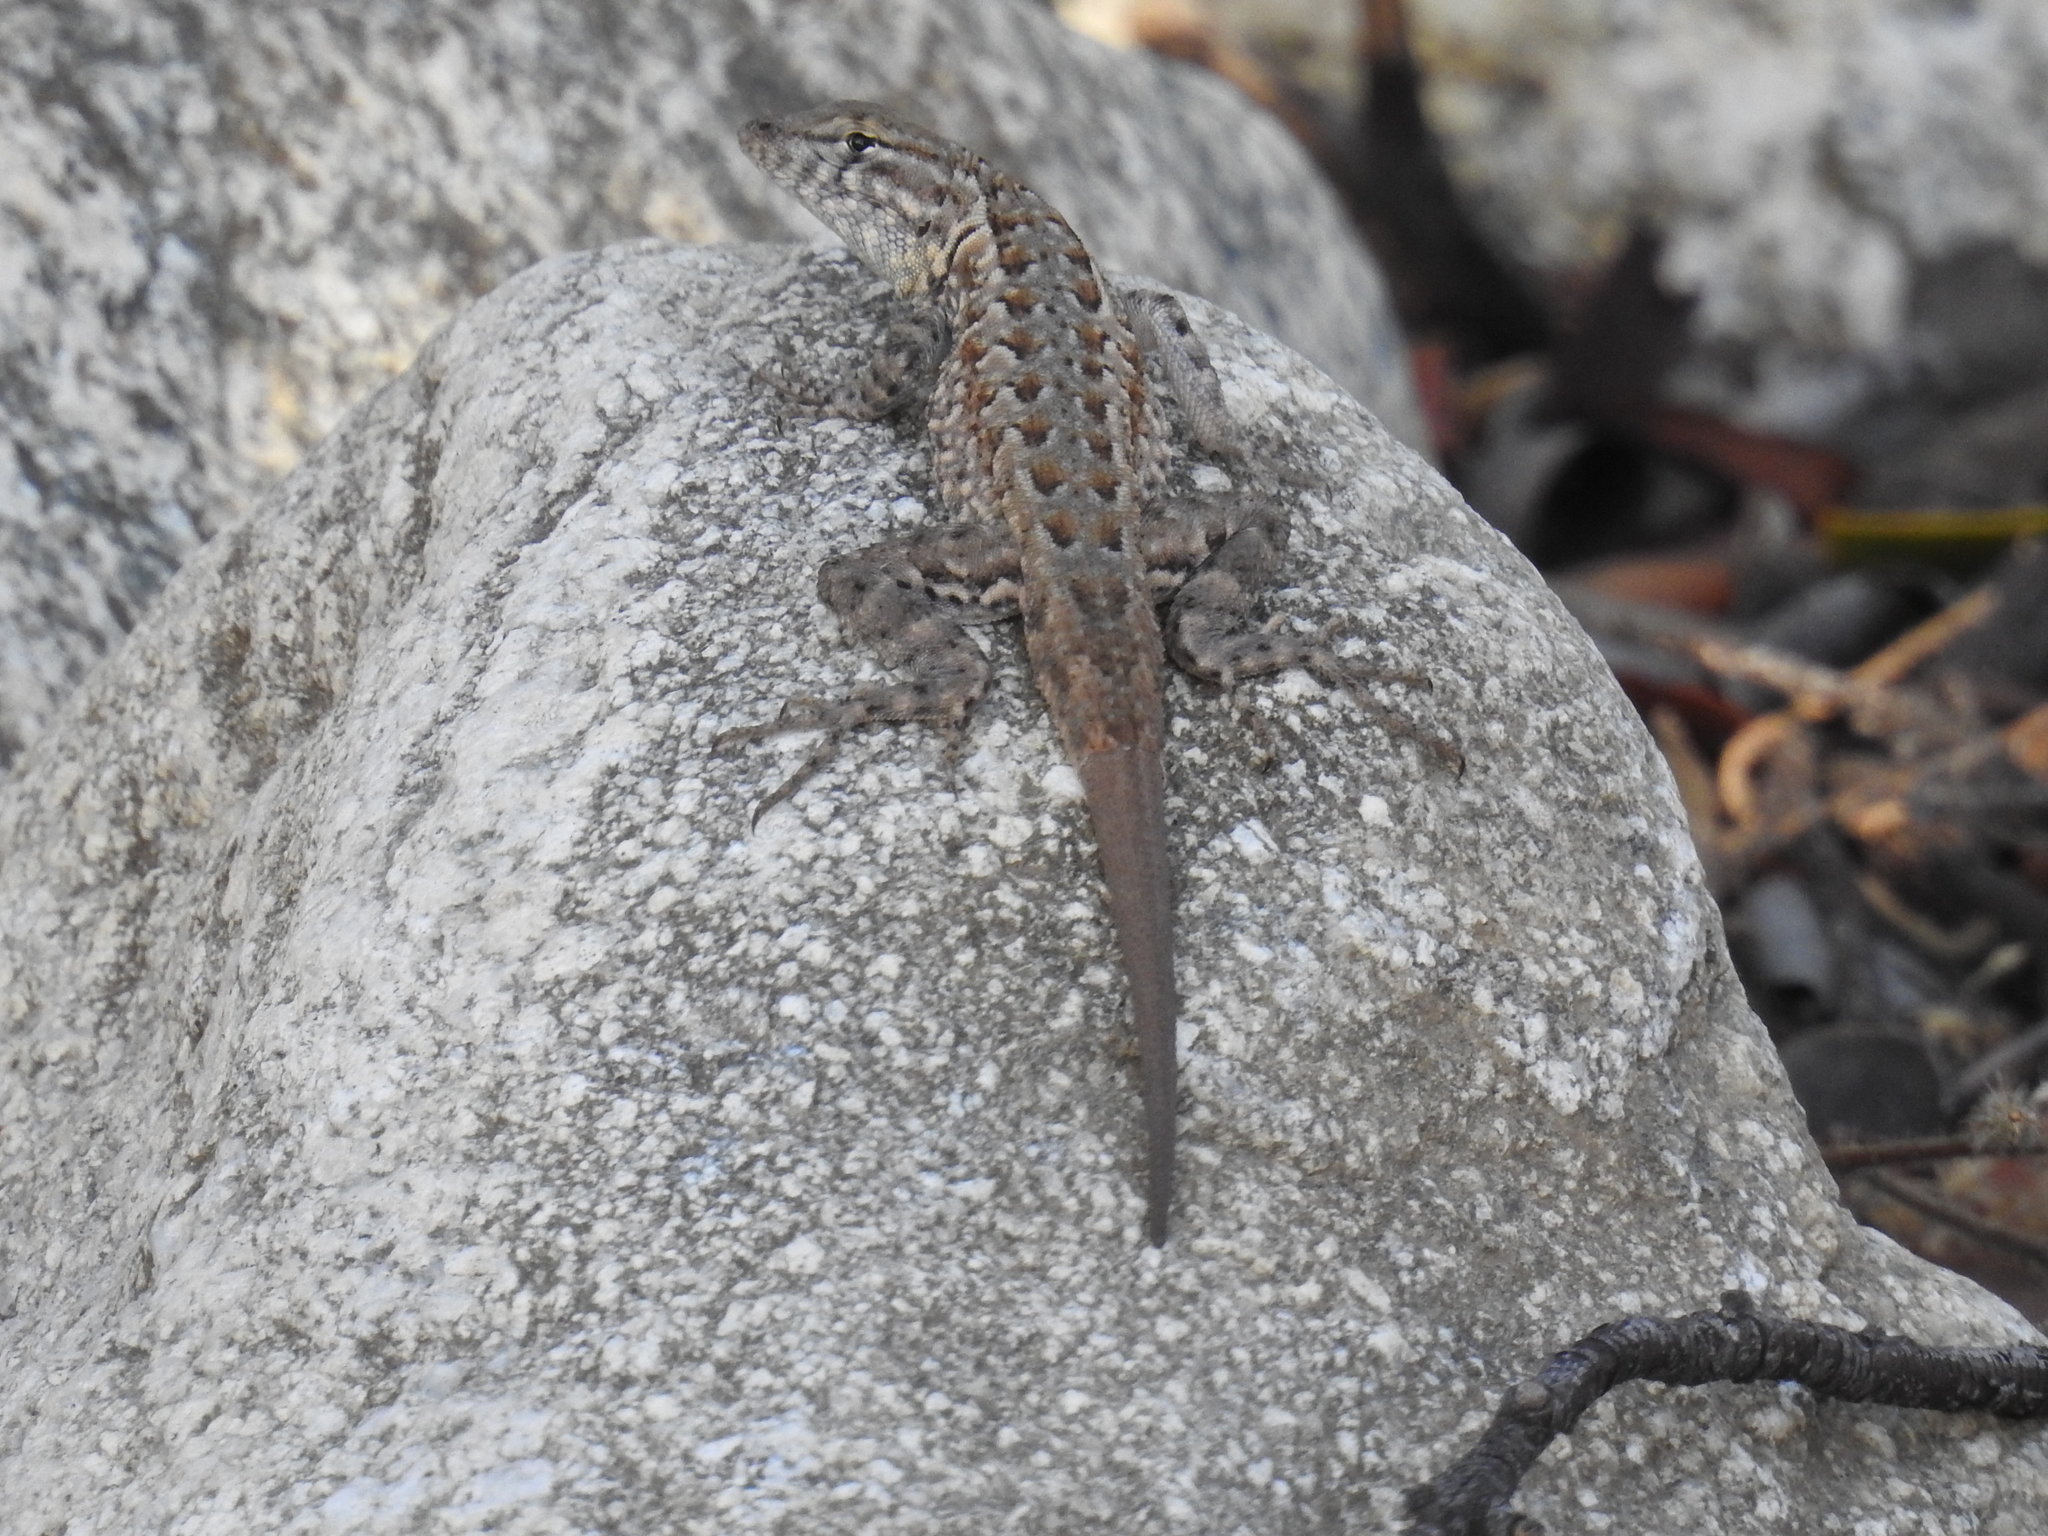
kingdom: Animalia
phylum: Chordata
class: Squamata
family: Phrynosomatidae
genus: Uta
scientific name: Uta stansburiana
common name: Side-blotched lizard
